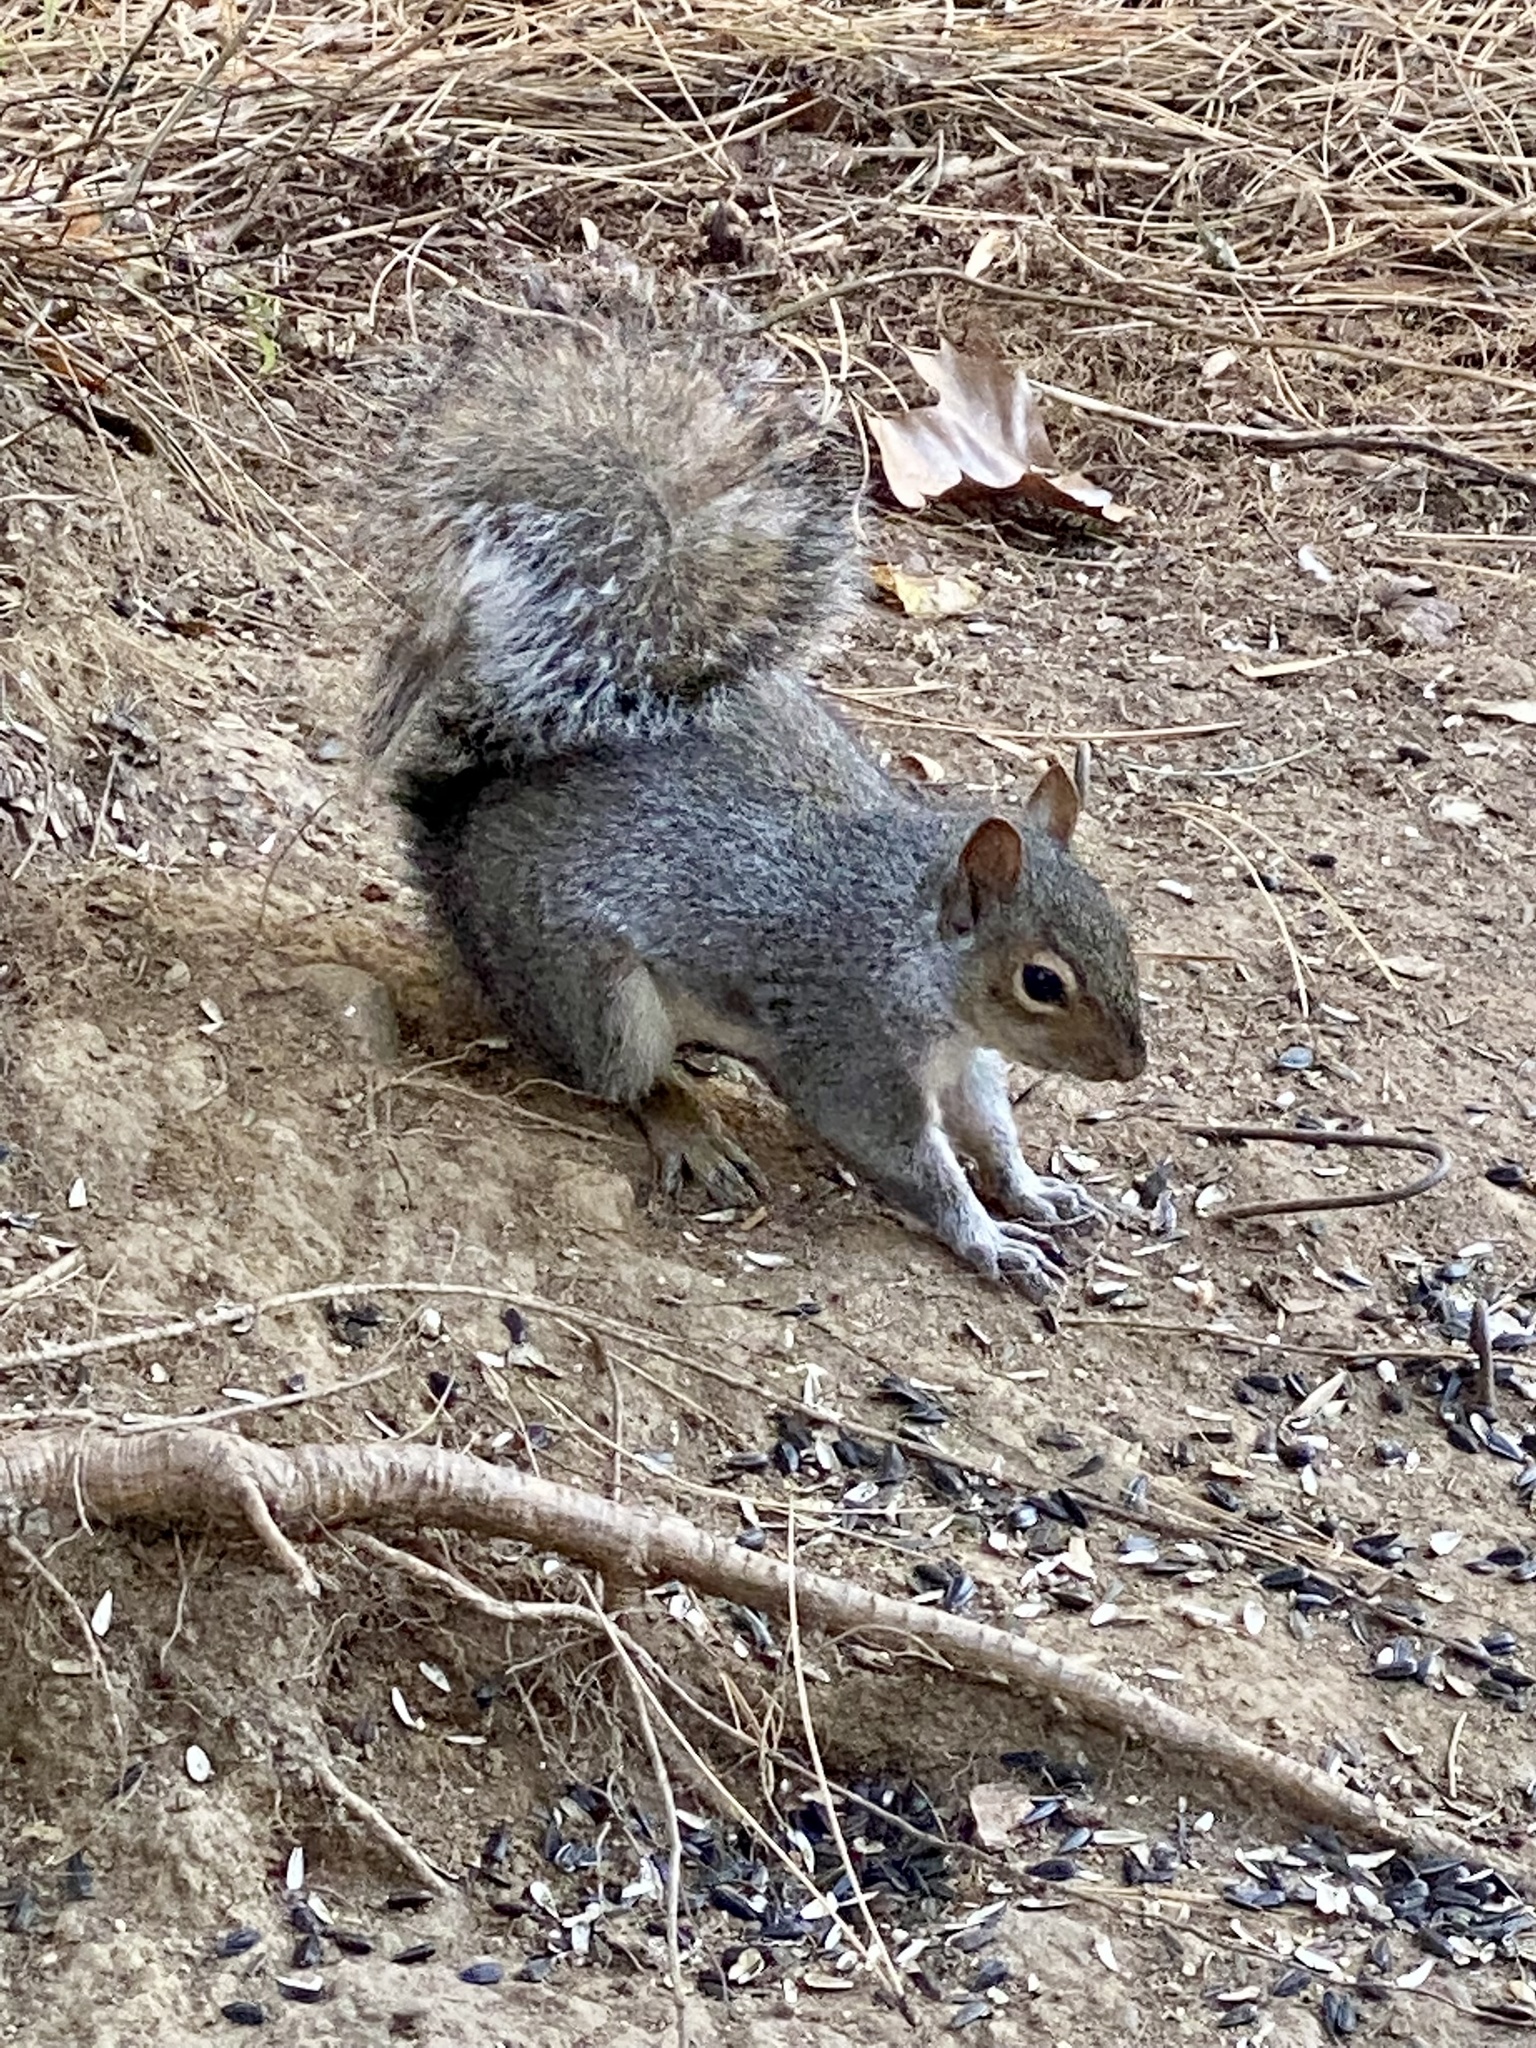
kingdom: Animalia
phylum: Chordata
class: Mammalia
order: Rodentia
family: Sciuridae
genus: Sciurus
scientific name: Sciurus carolinensis
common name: Eastern gray squirrel
